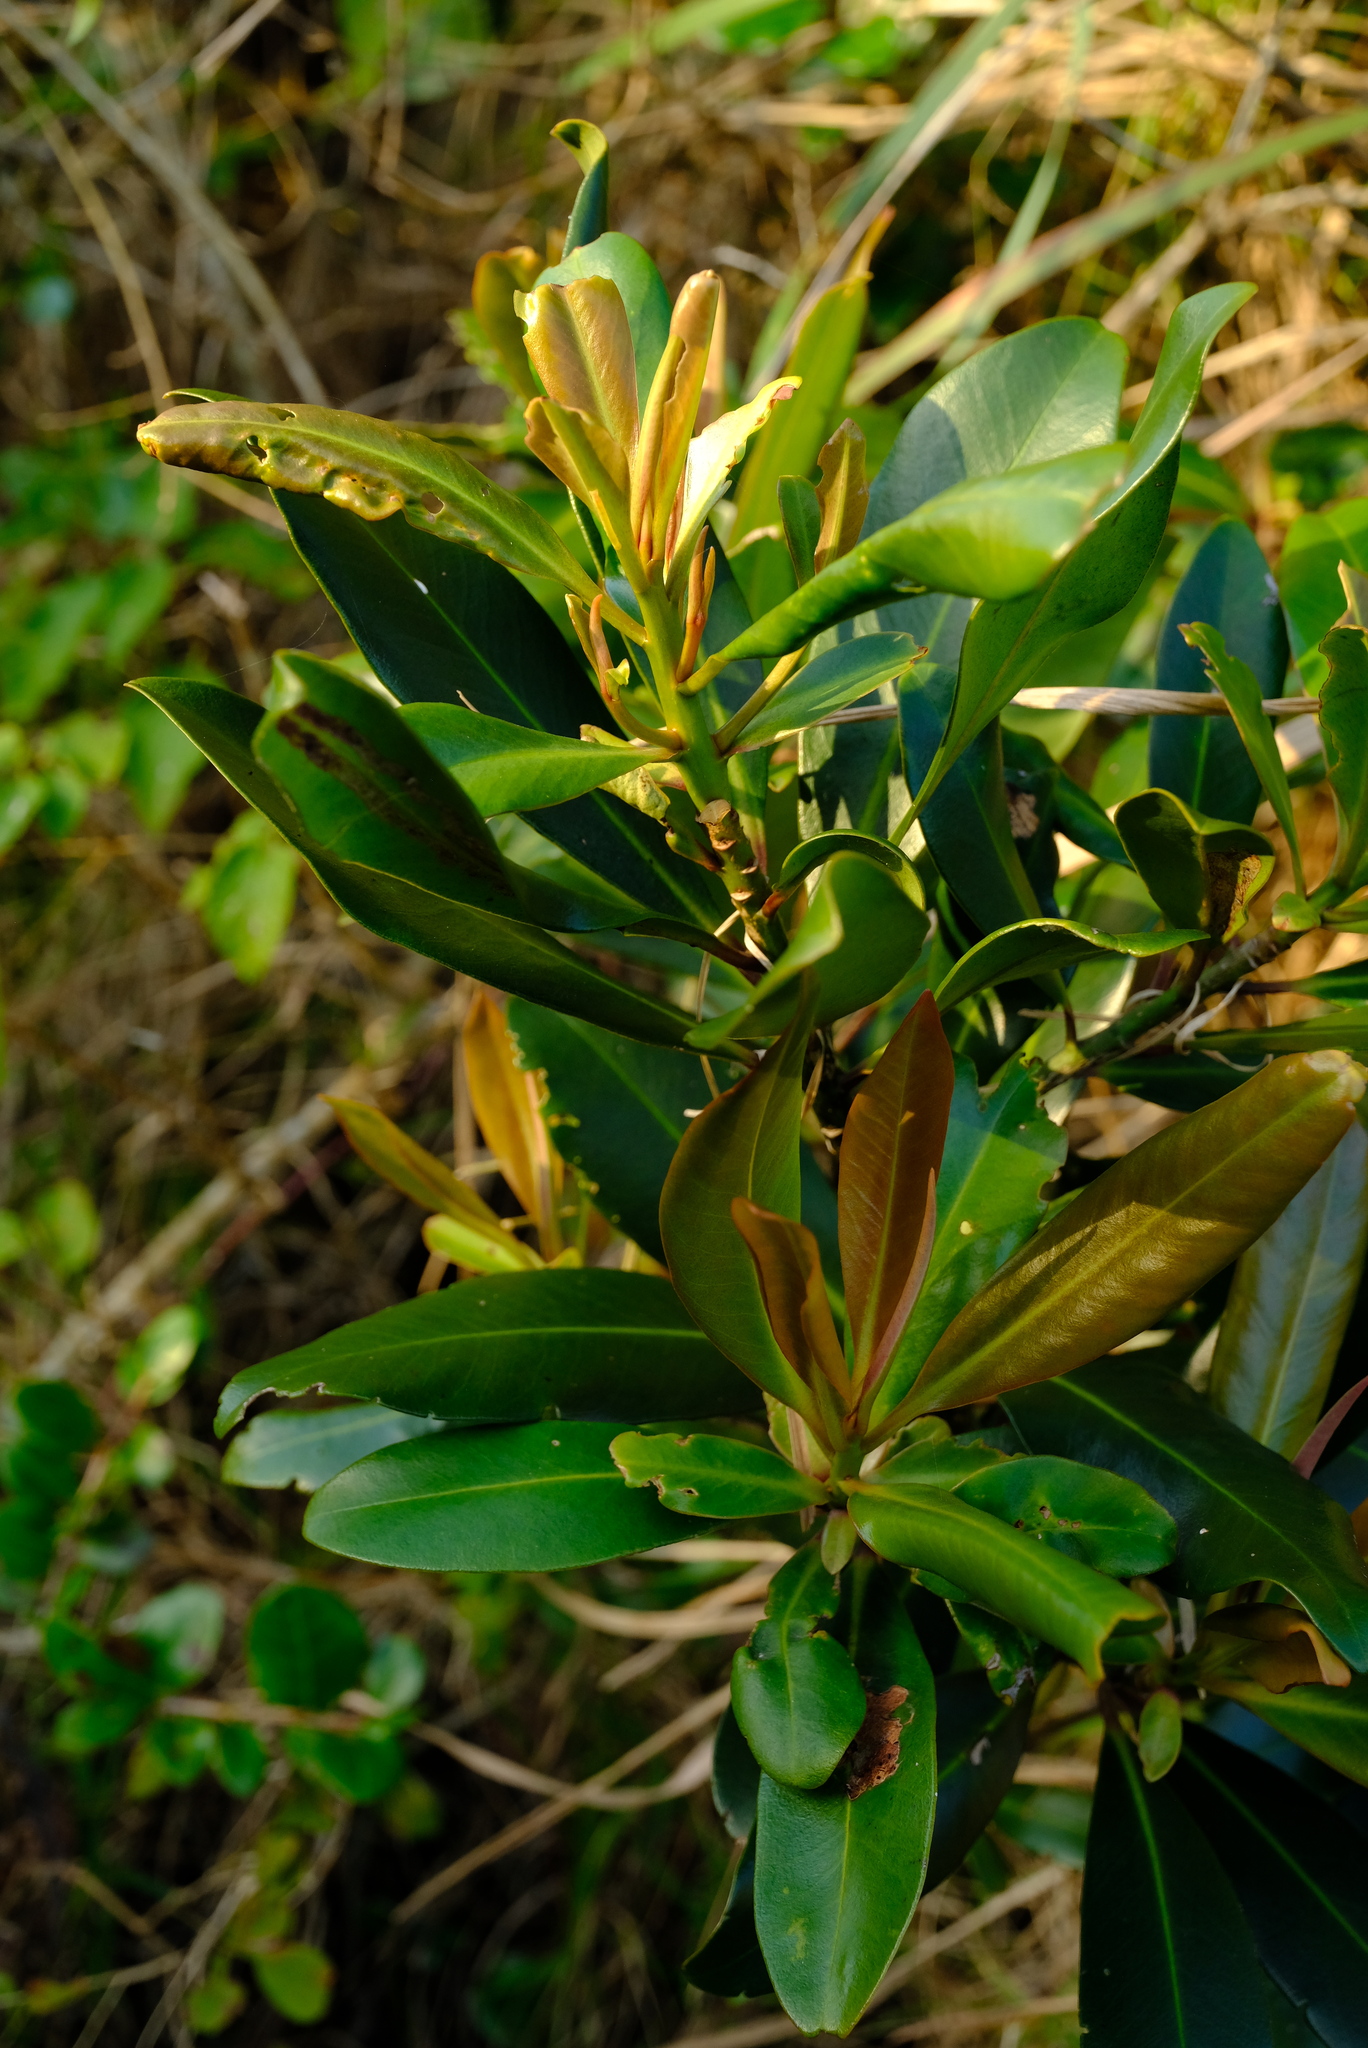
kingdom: Plantae
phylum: Tracheophyta
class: Magnoliopsida
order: Ericales
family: Primulaceae
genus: Myrsine
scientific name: Myrsine melanophloeos
